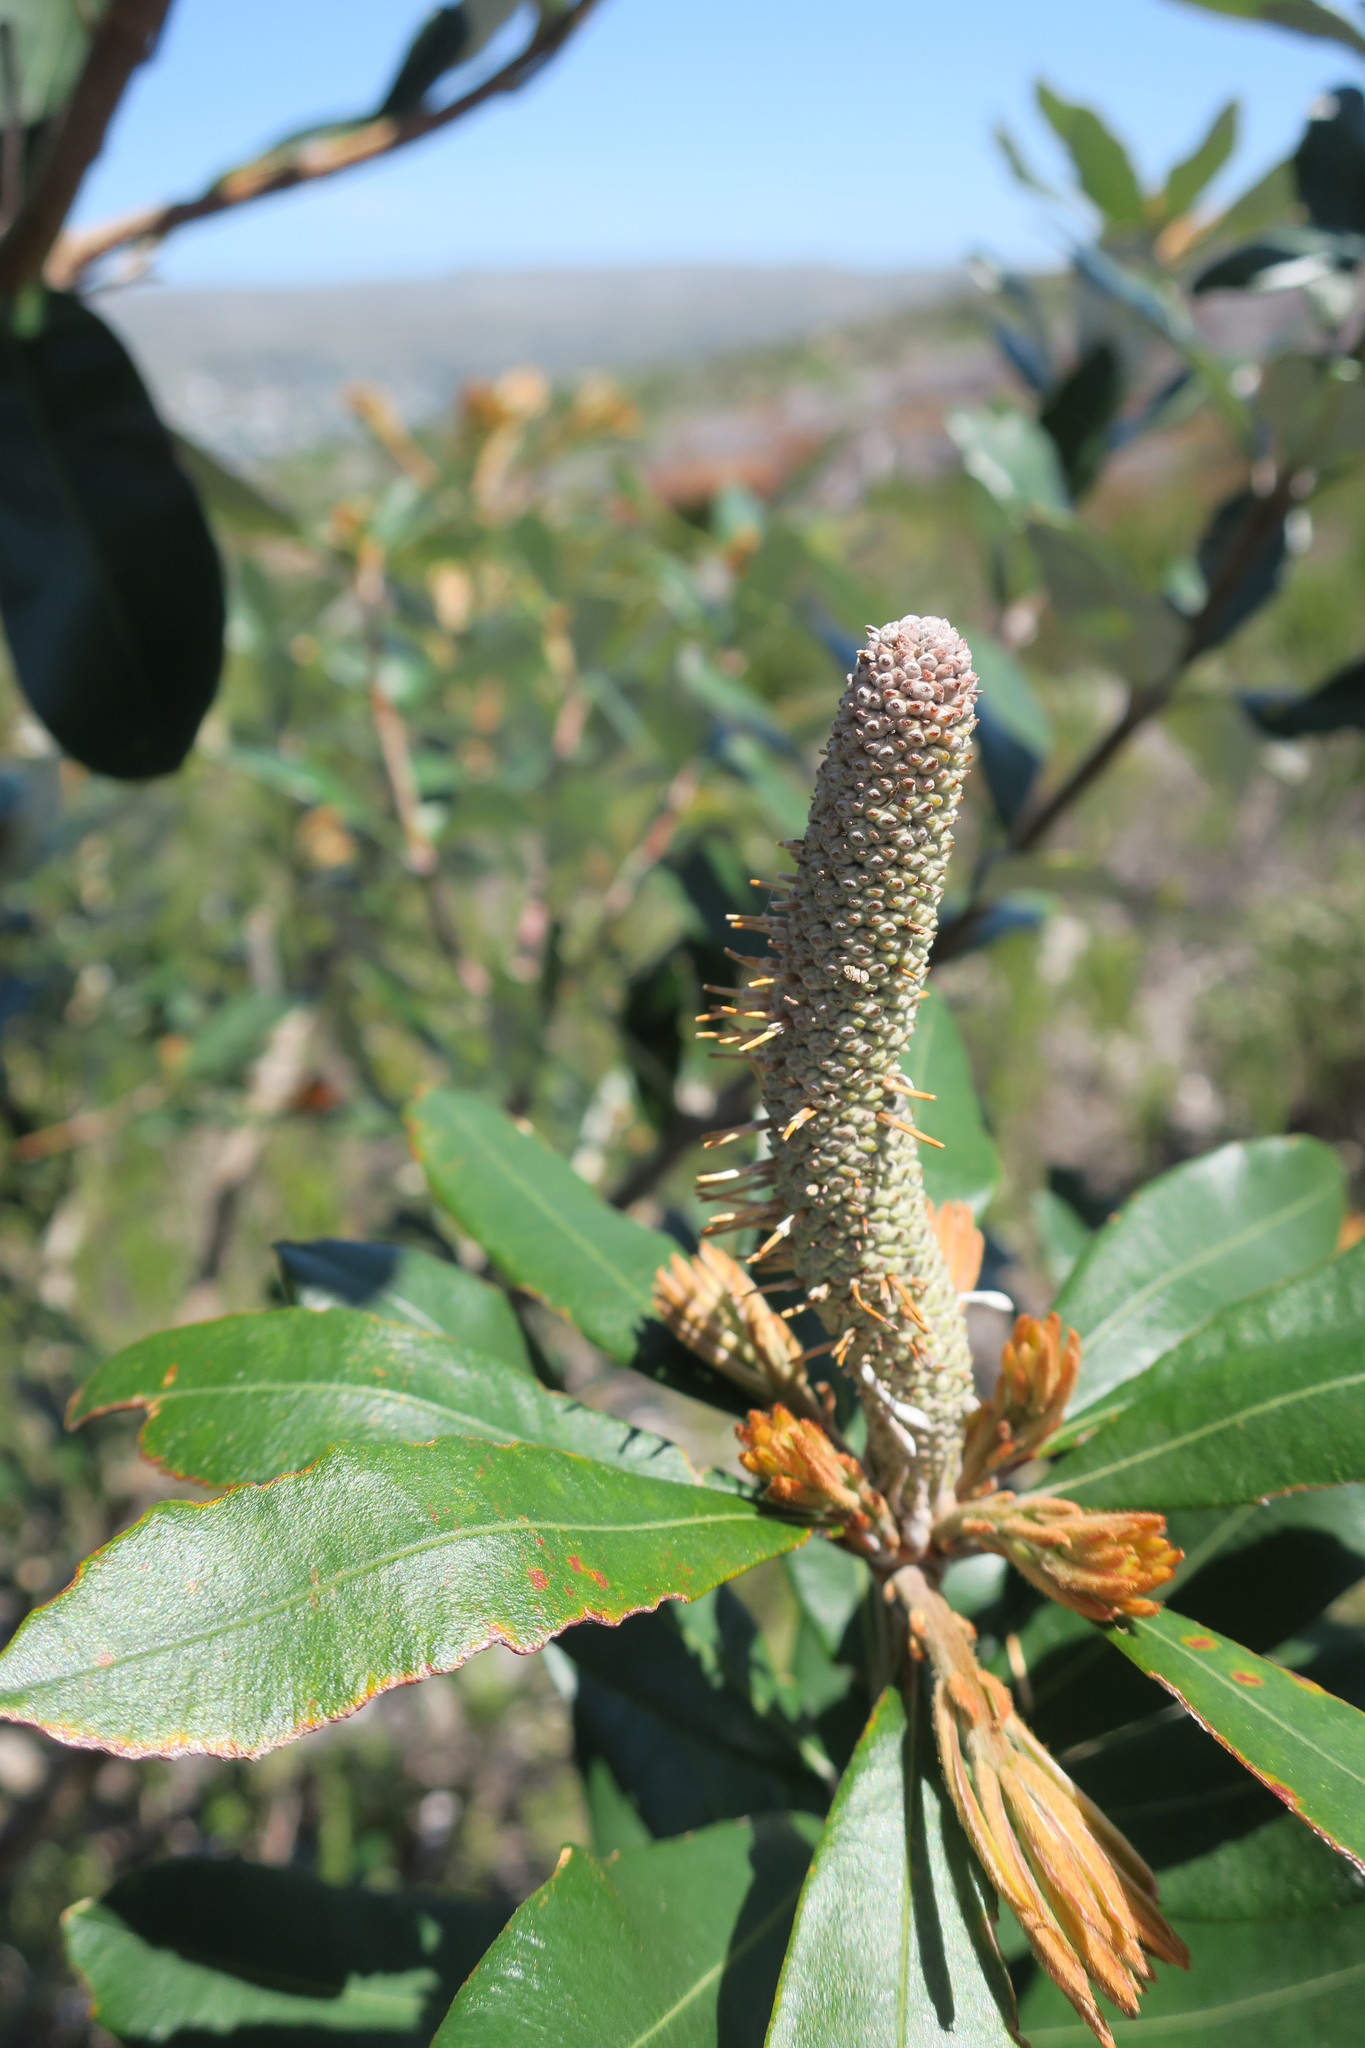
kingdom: Plantae
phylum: Tracheophyta
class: Magnoliopsida
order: Proteales
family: Proteaceae
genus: Banksia
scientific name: Banksia integrifolia
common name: White-honeysuckle
